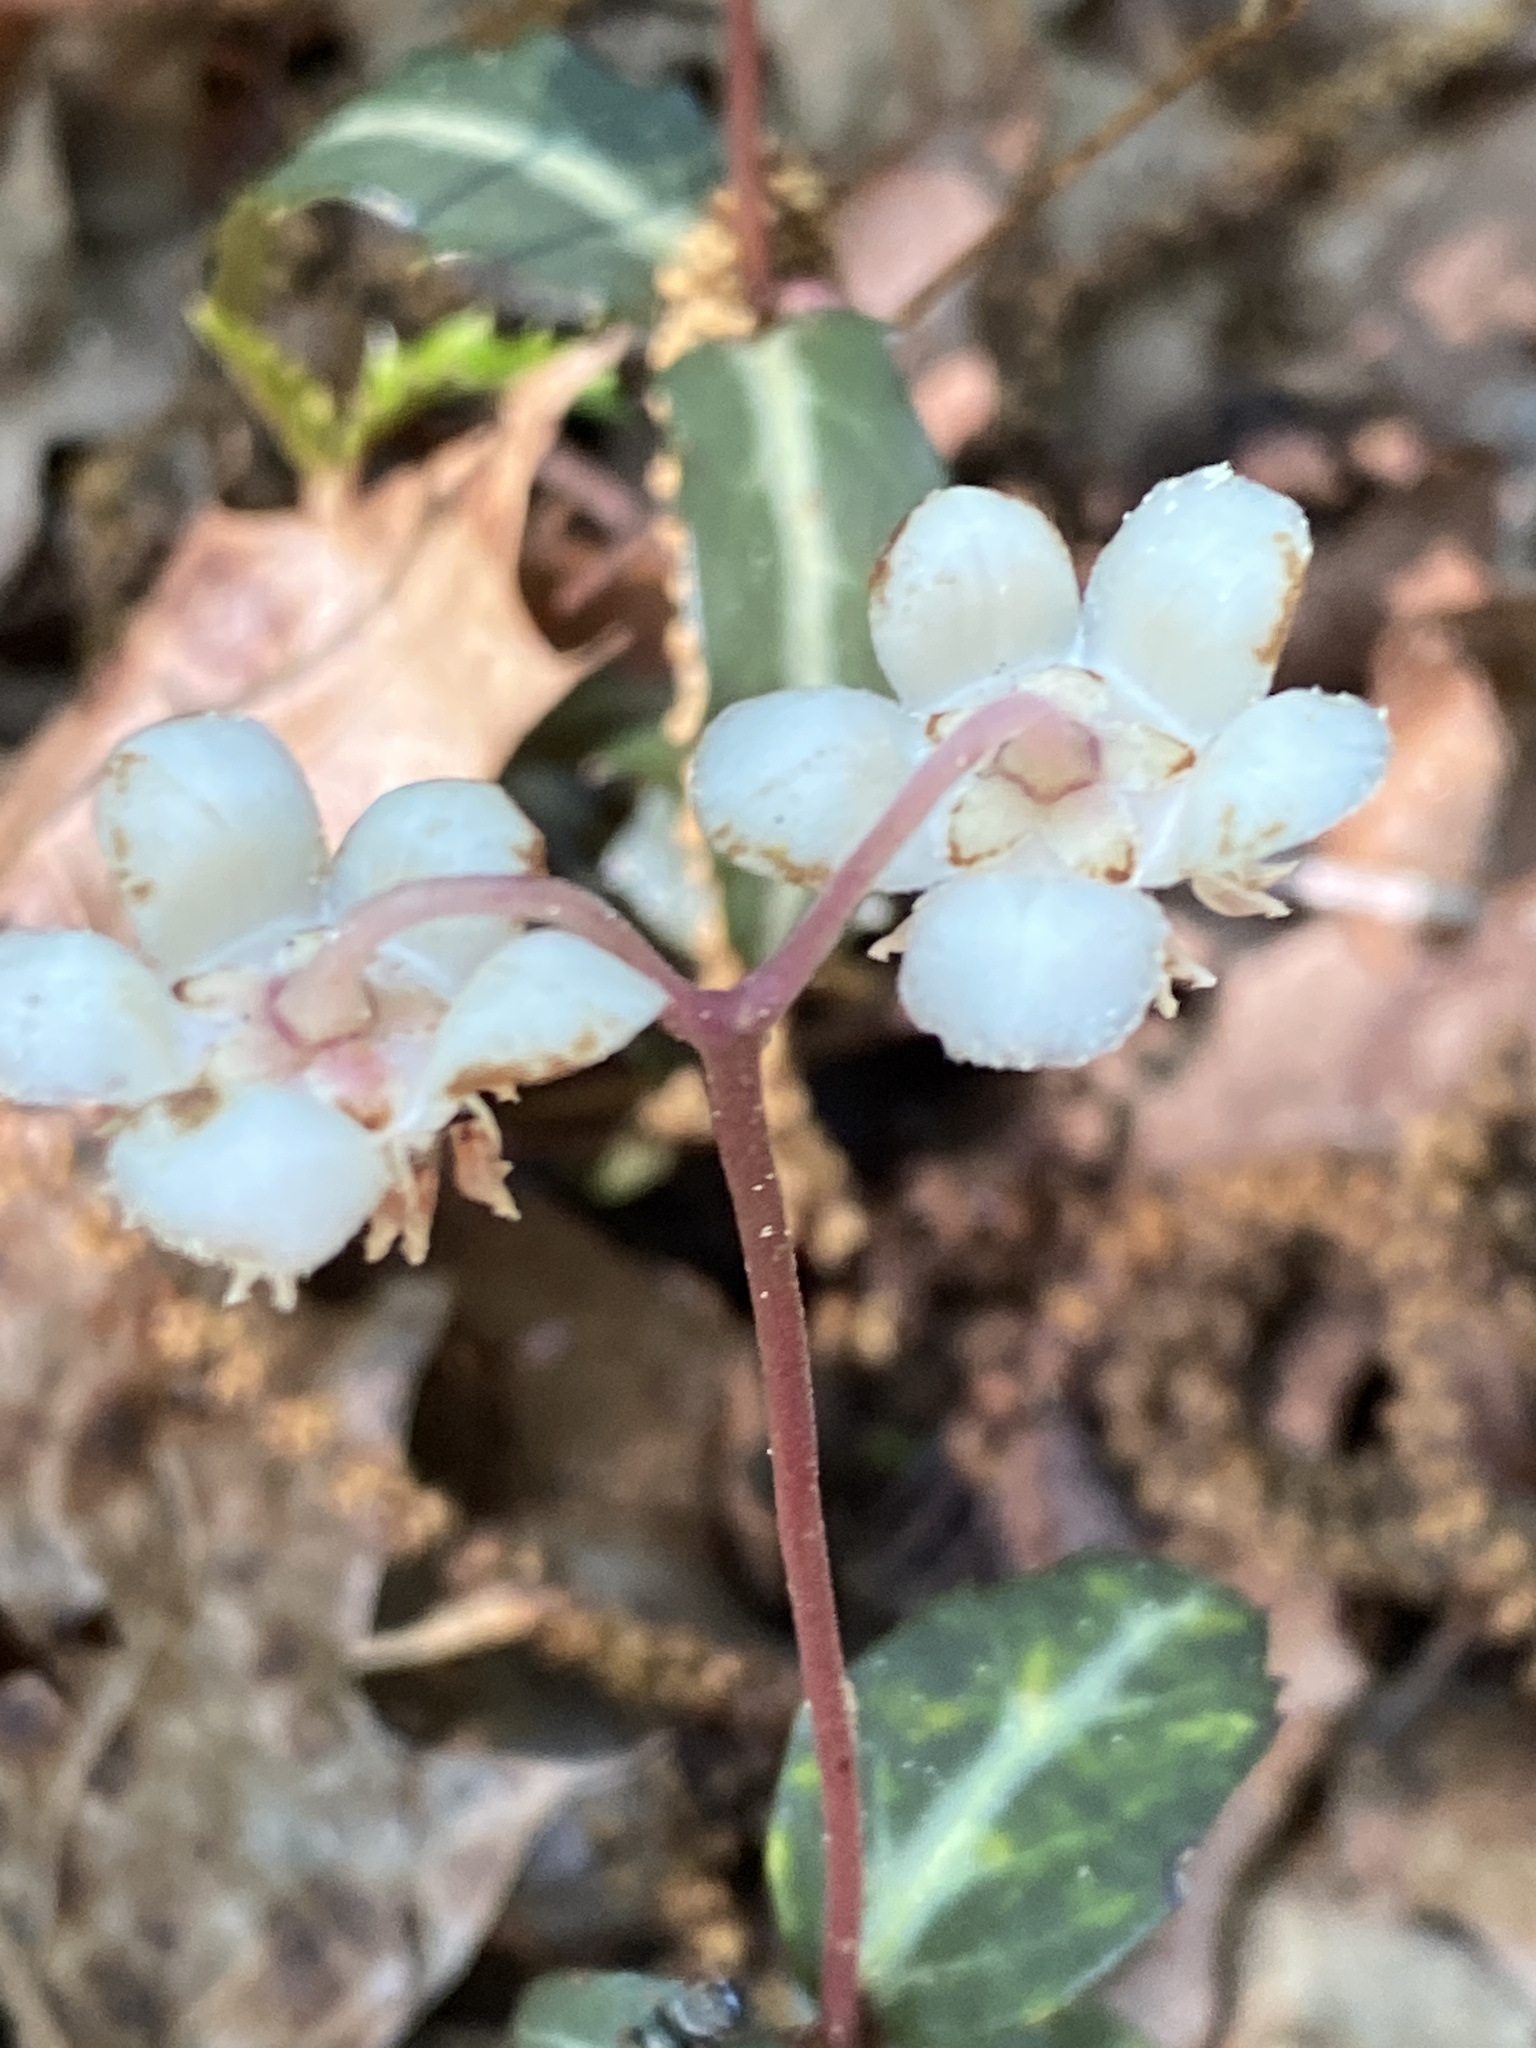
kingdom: Plantae
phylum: Tracheophyta
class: Magnoliopsida
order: Ericales
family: Ericaceae
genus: Chimaphila
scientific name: Chimaphila maculata
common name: Spotted pipsissewa
